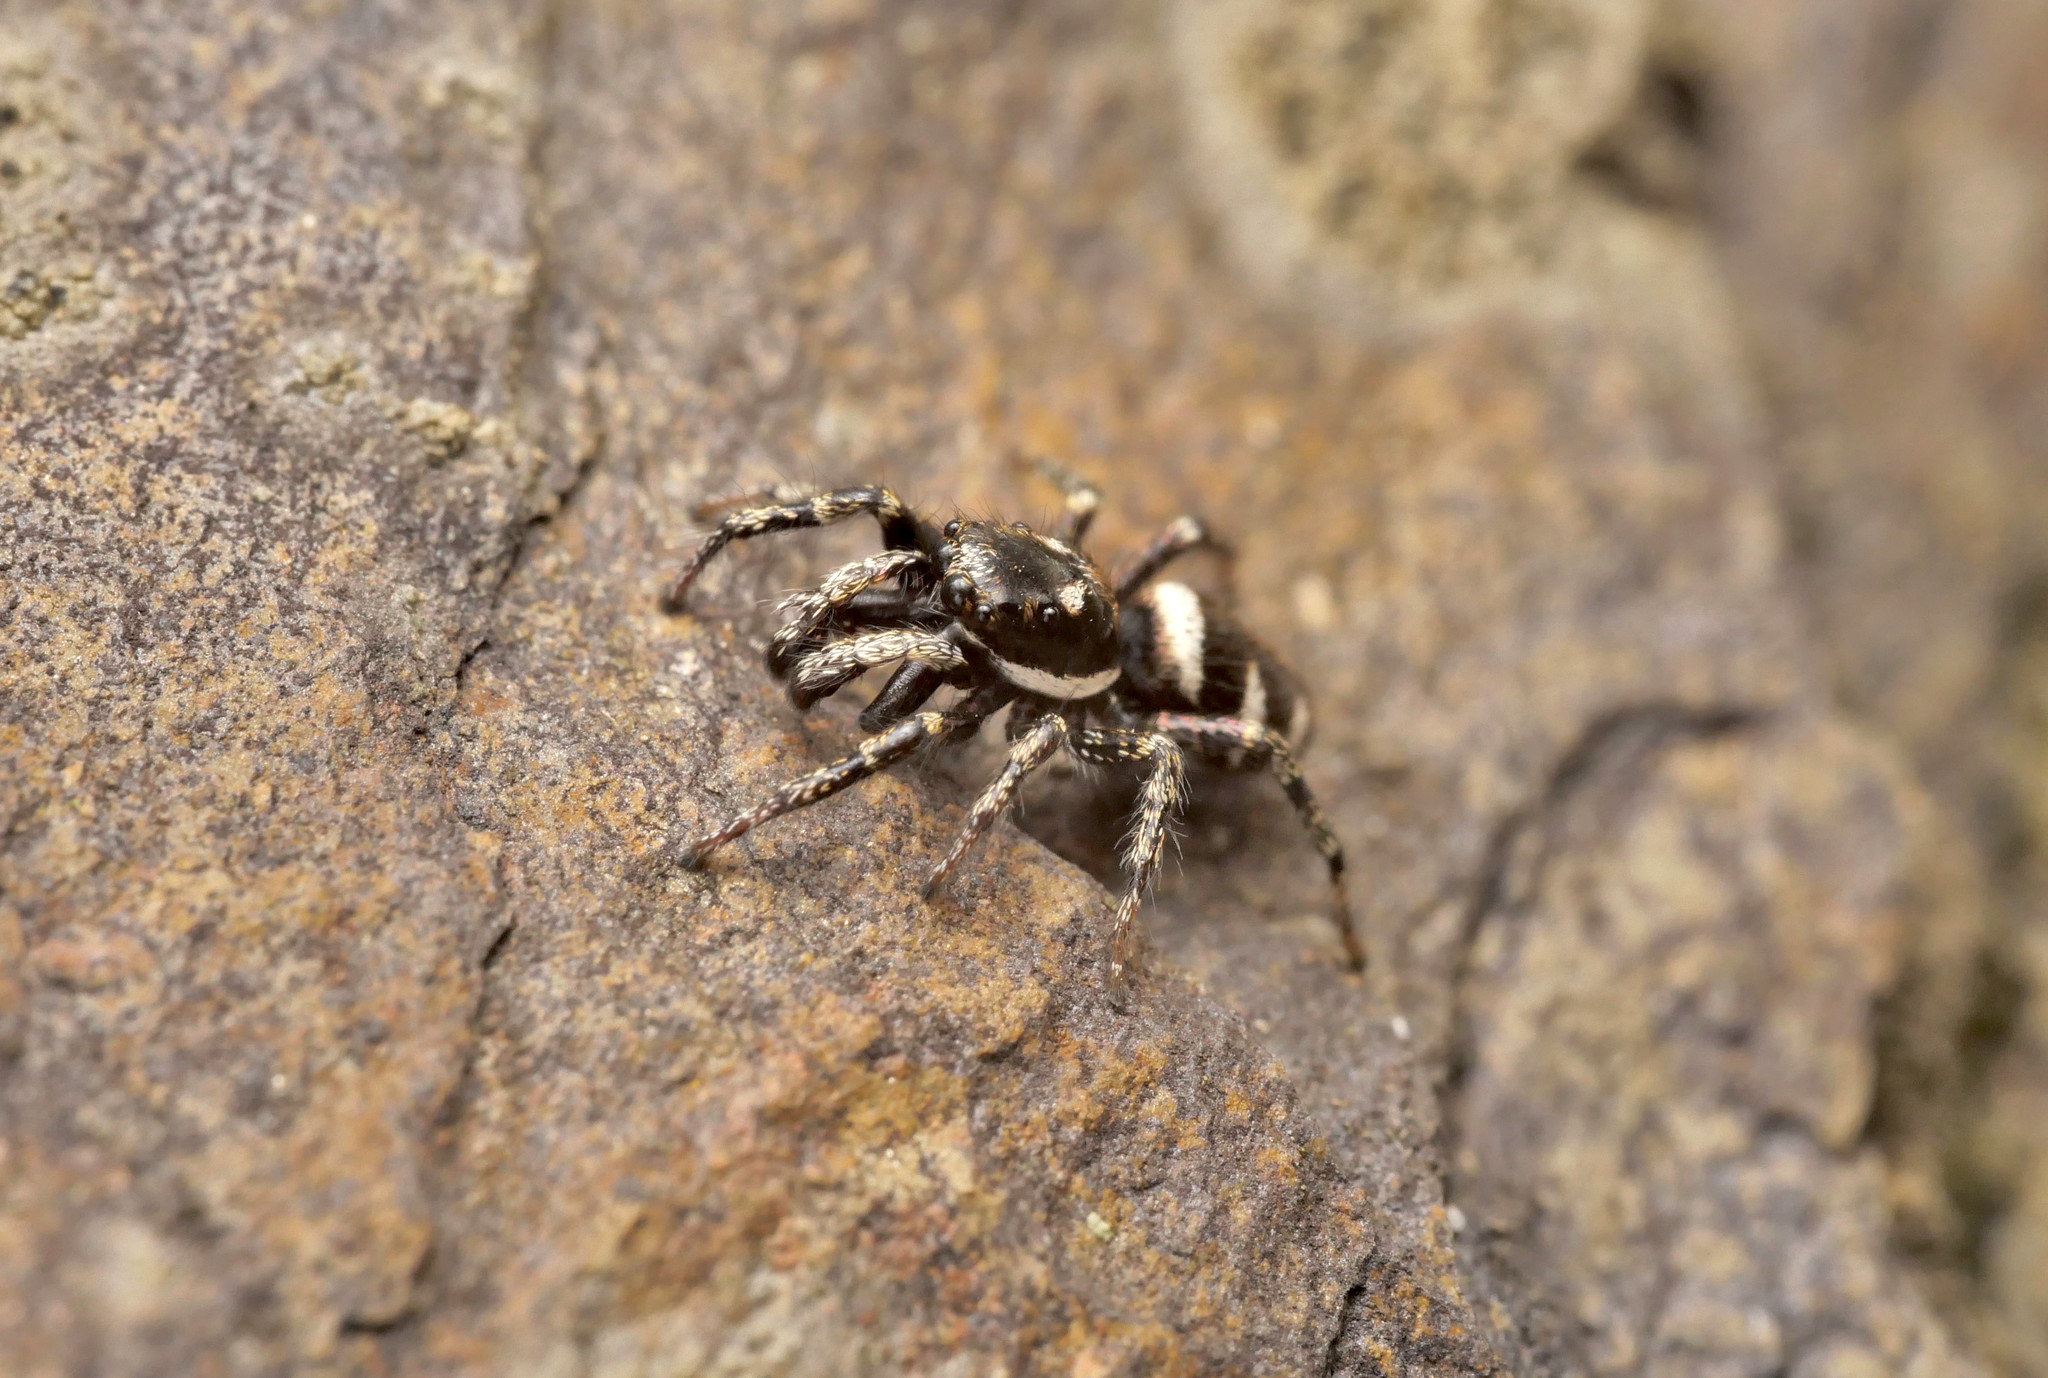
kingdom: Animalia
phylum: Arthropoda
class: Arachnida
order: Araneae
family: Salticidae
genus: Salticus
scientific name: Salticus scenicus
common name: Zebra jumper
